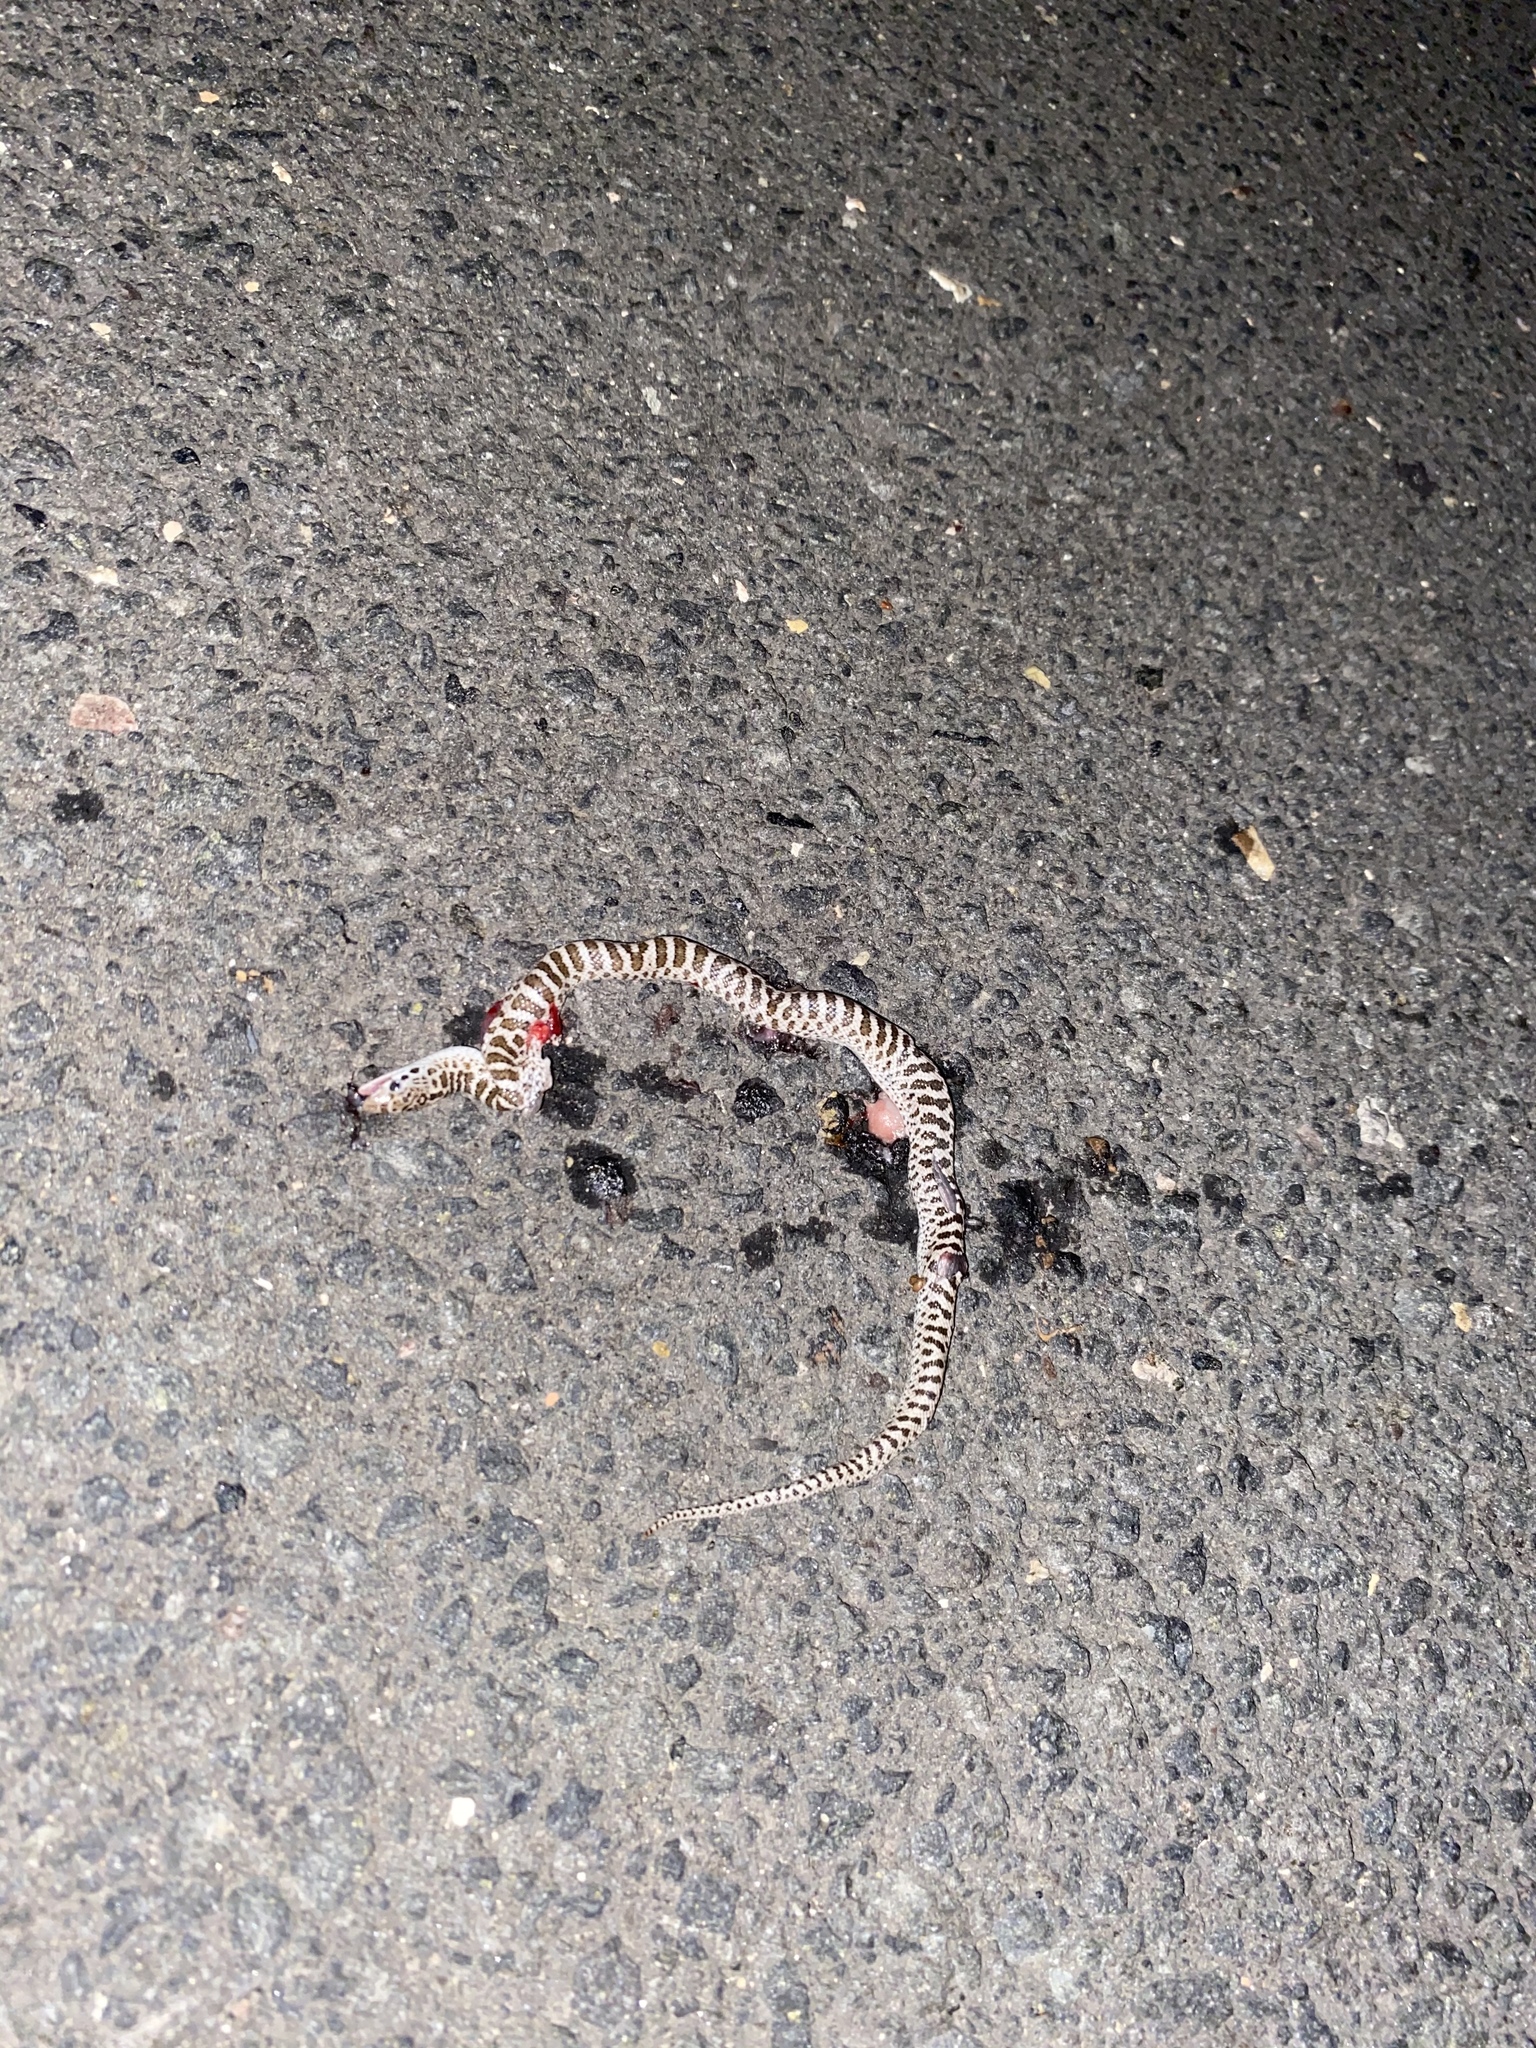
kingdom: Animalia
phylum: Chordata
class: Squamata
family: Colubridae
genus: Arizona
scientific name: Arizona elegans
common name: Glossy snake
